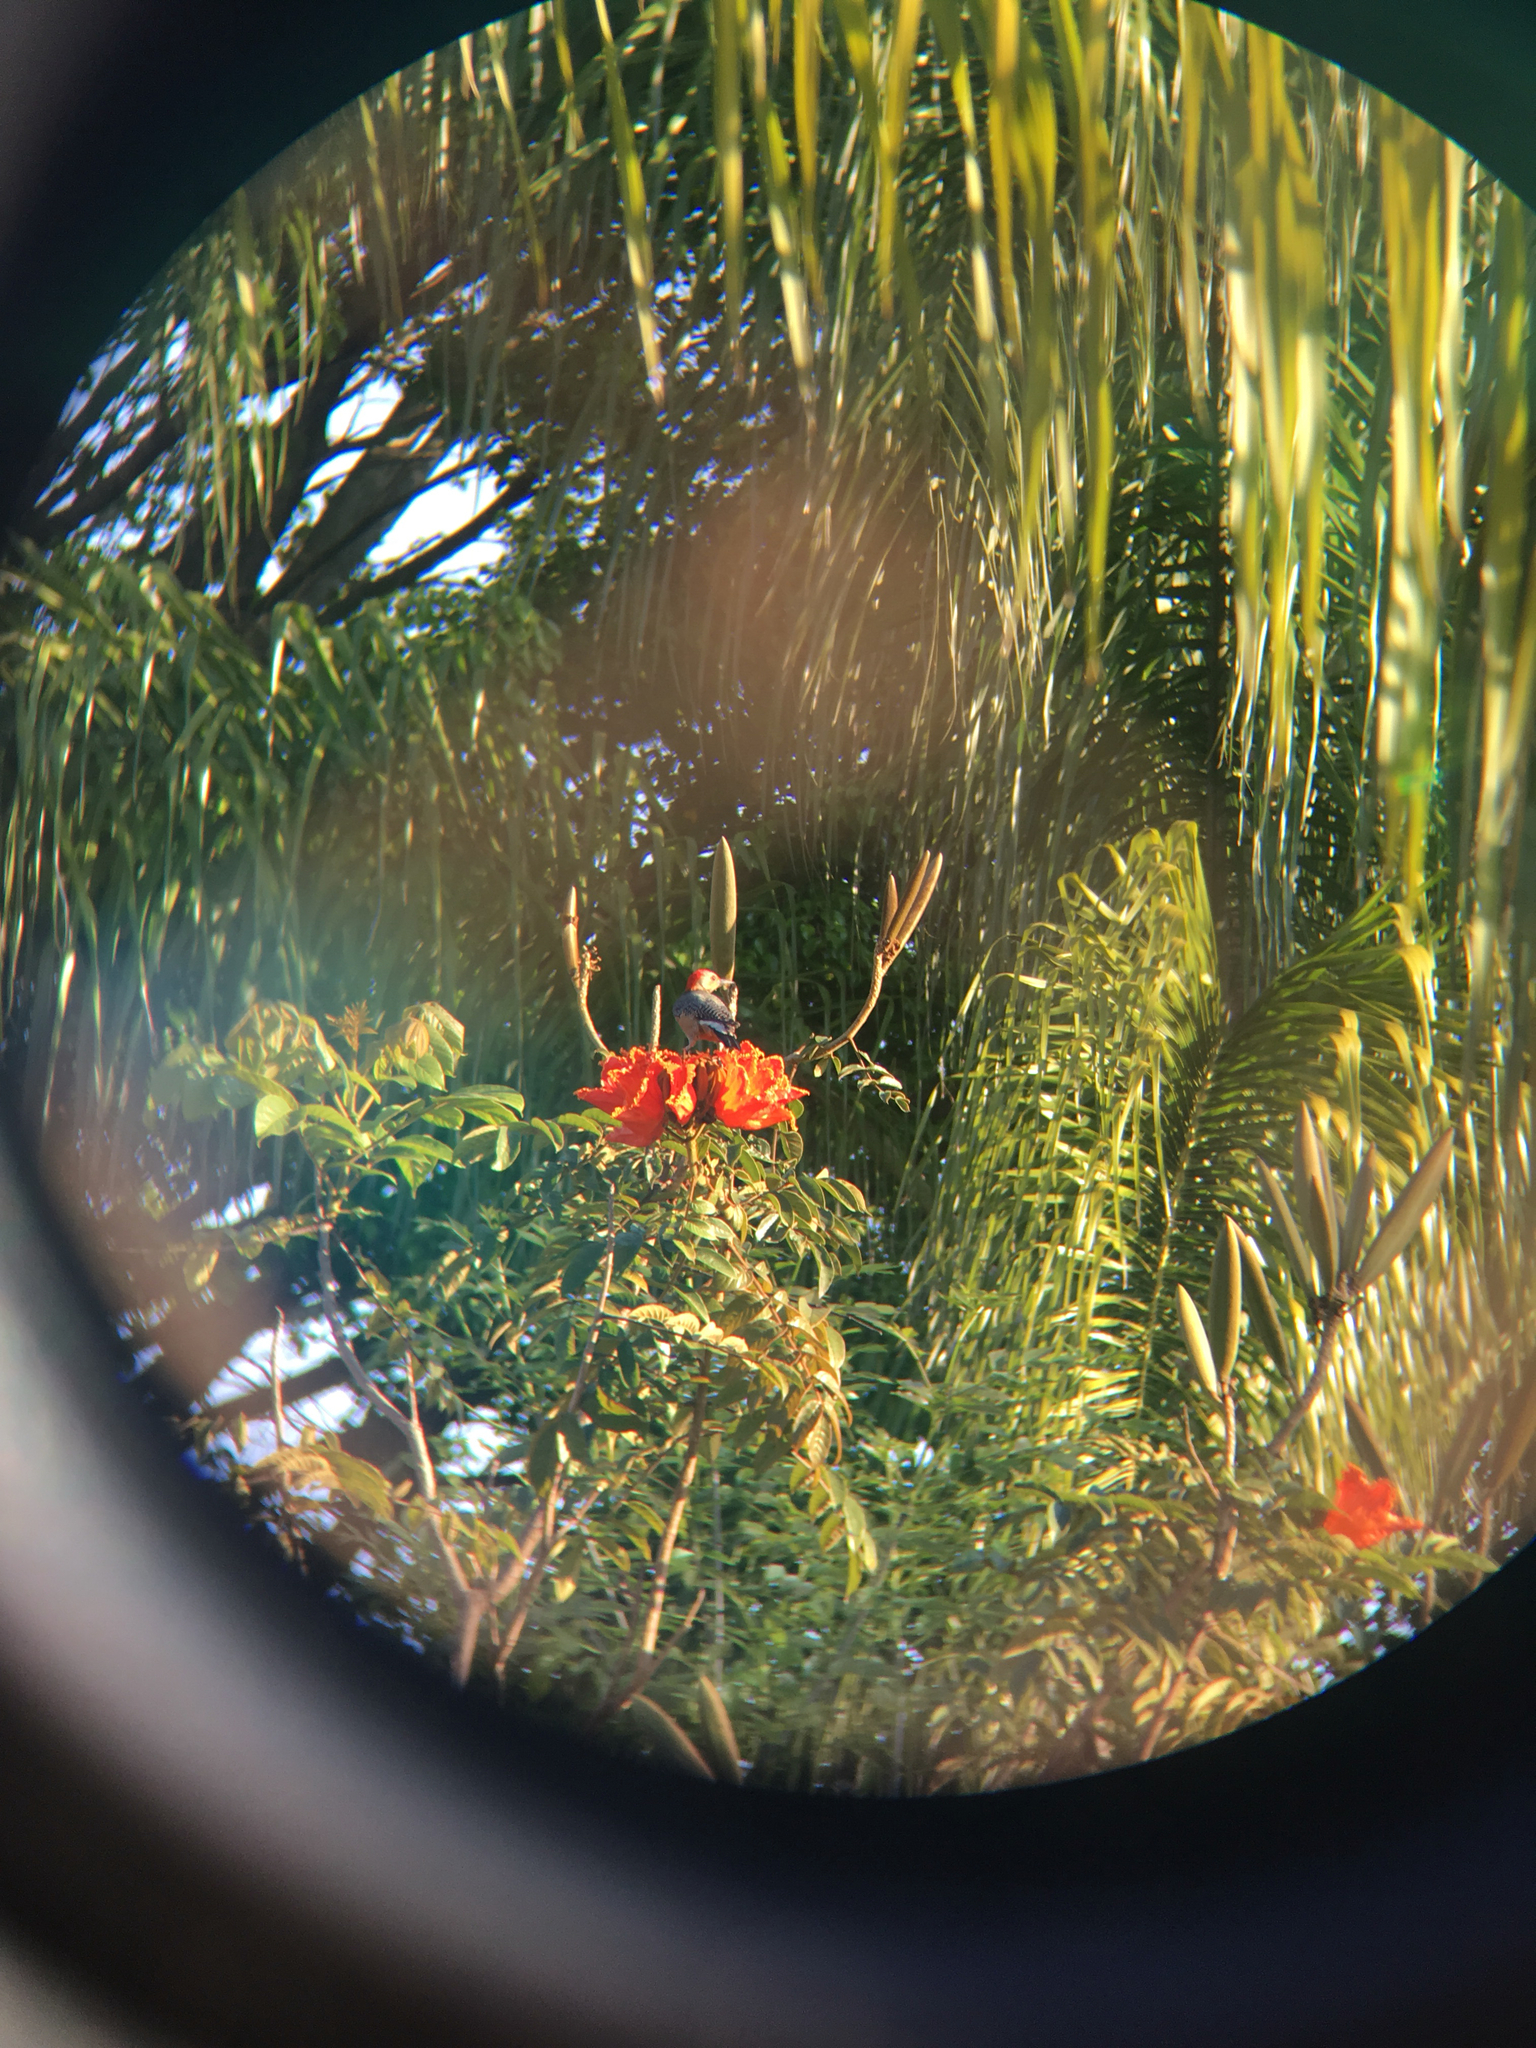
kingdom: Animalia
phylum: Chordata
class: Aves
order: Piciformes
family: Picidae
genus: Melanerpes
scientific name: Melanerpes aurifrons
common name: Golden-fronted woodpecker
